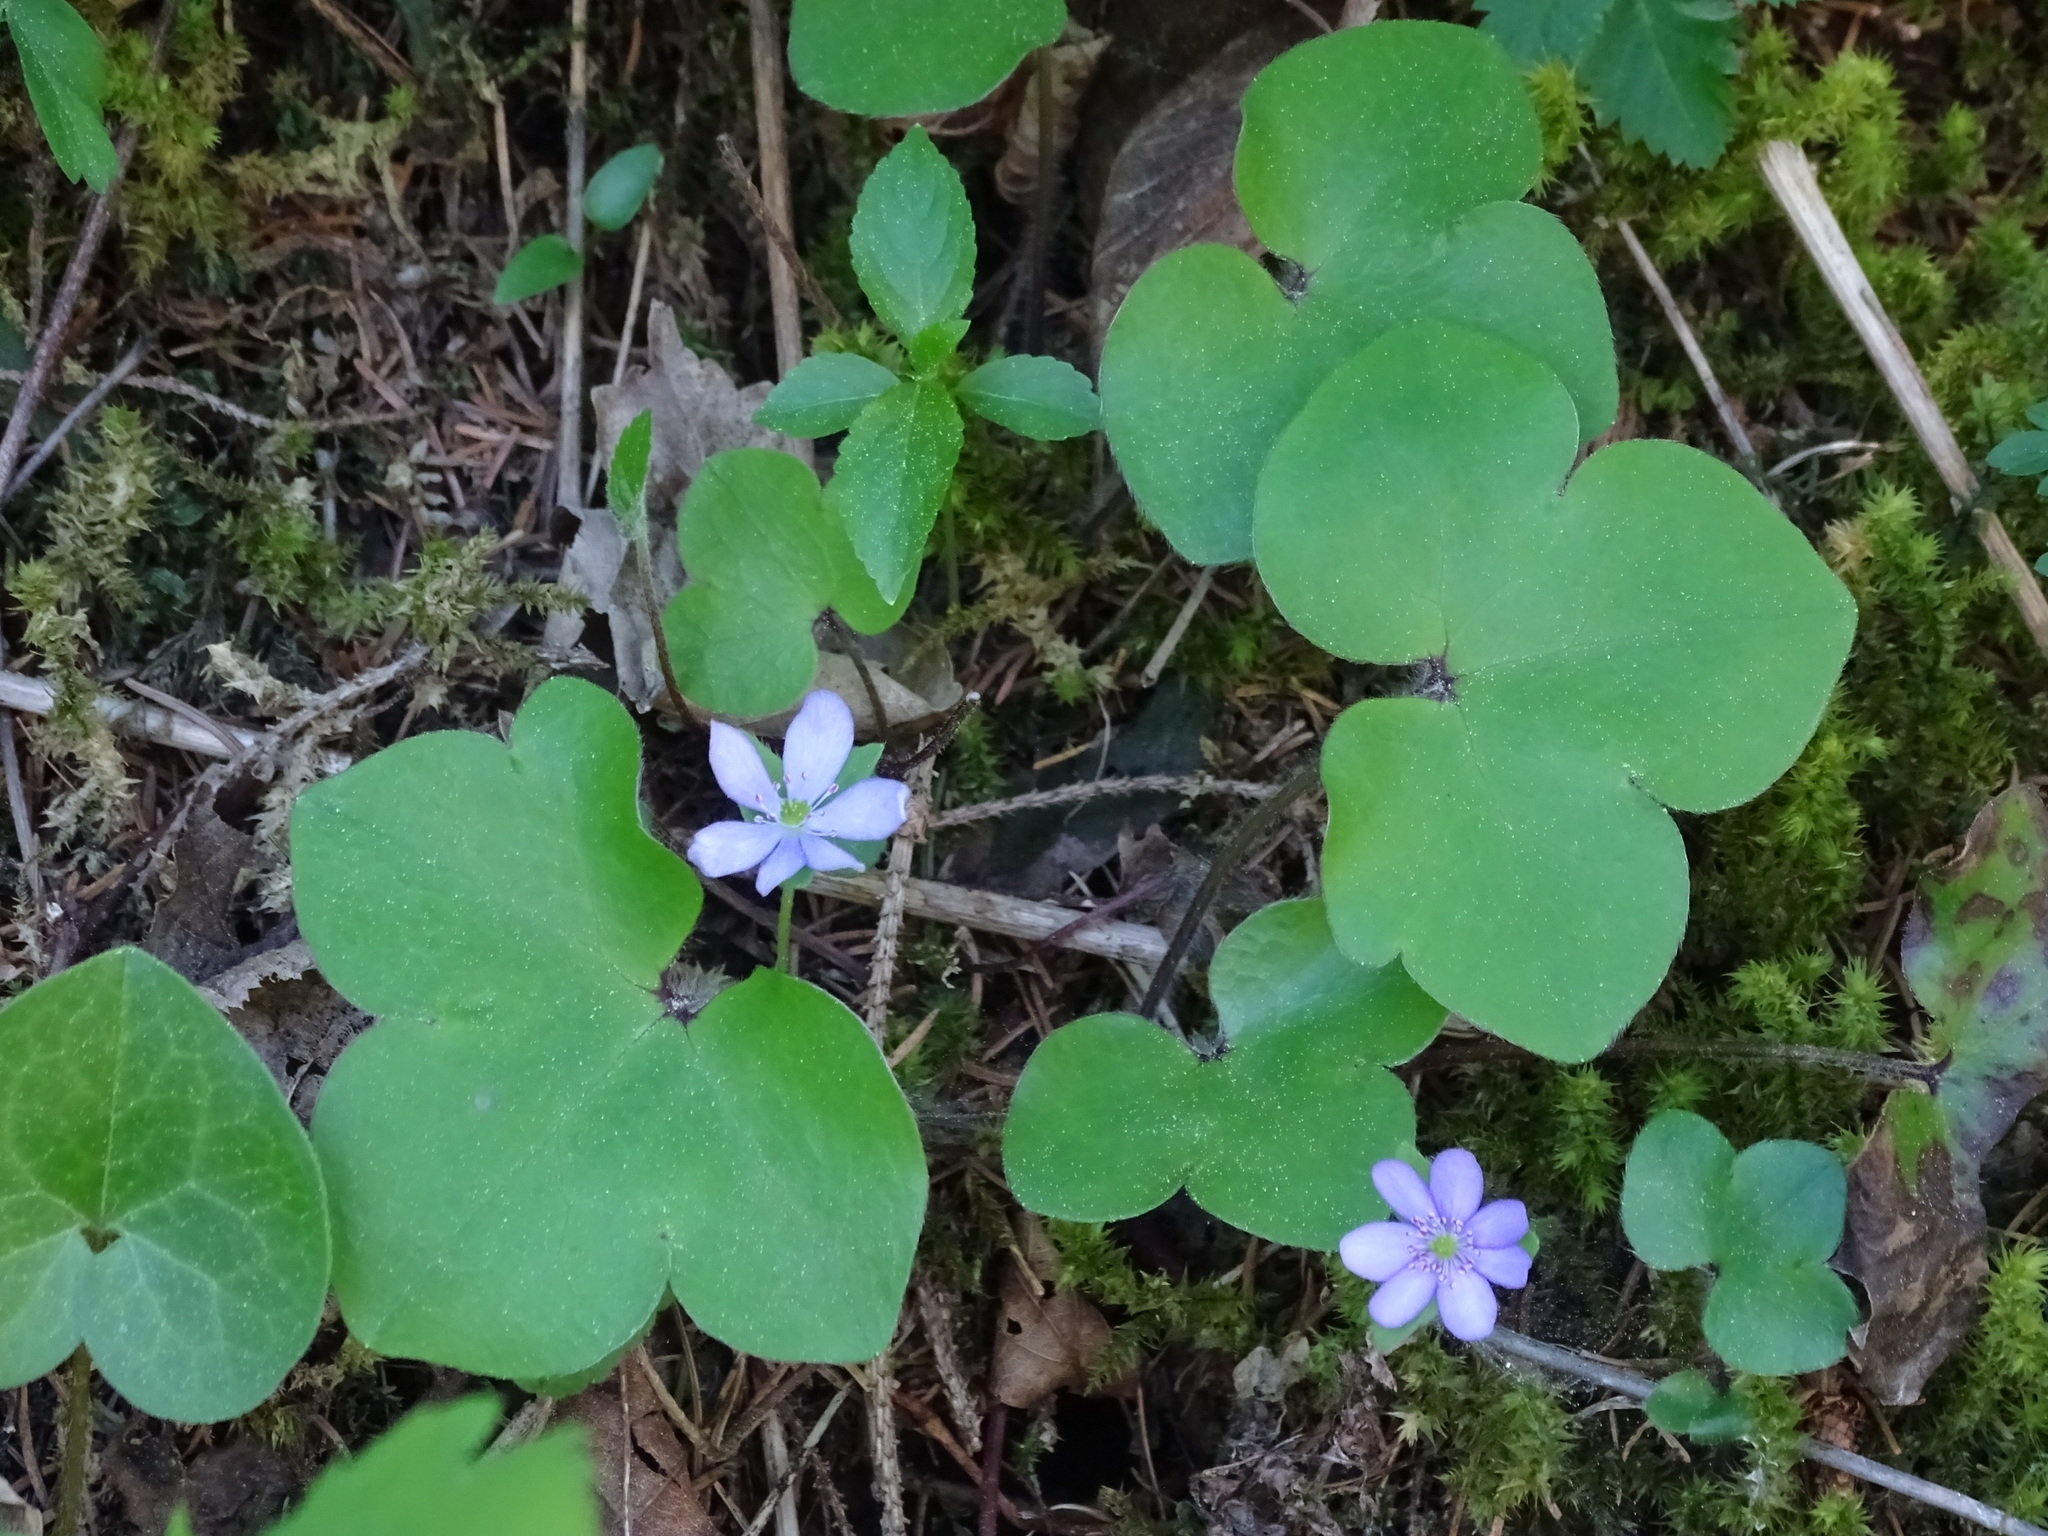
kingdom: Plantae
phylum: Tracheophyta
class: Magnoliopsida
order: Ranunculales
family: Ranunculaceae
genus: Hepatica
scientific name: Hepatica nobilis
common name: Liverleaf
